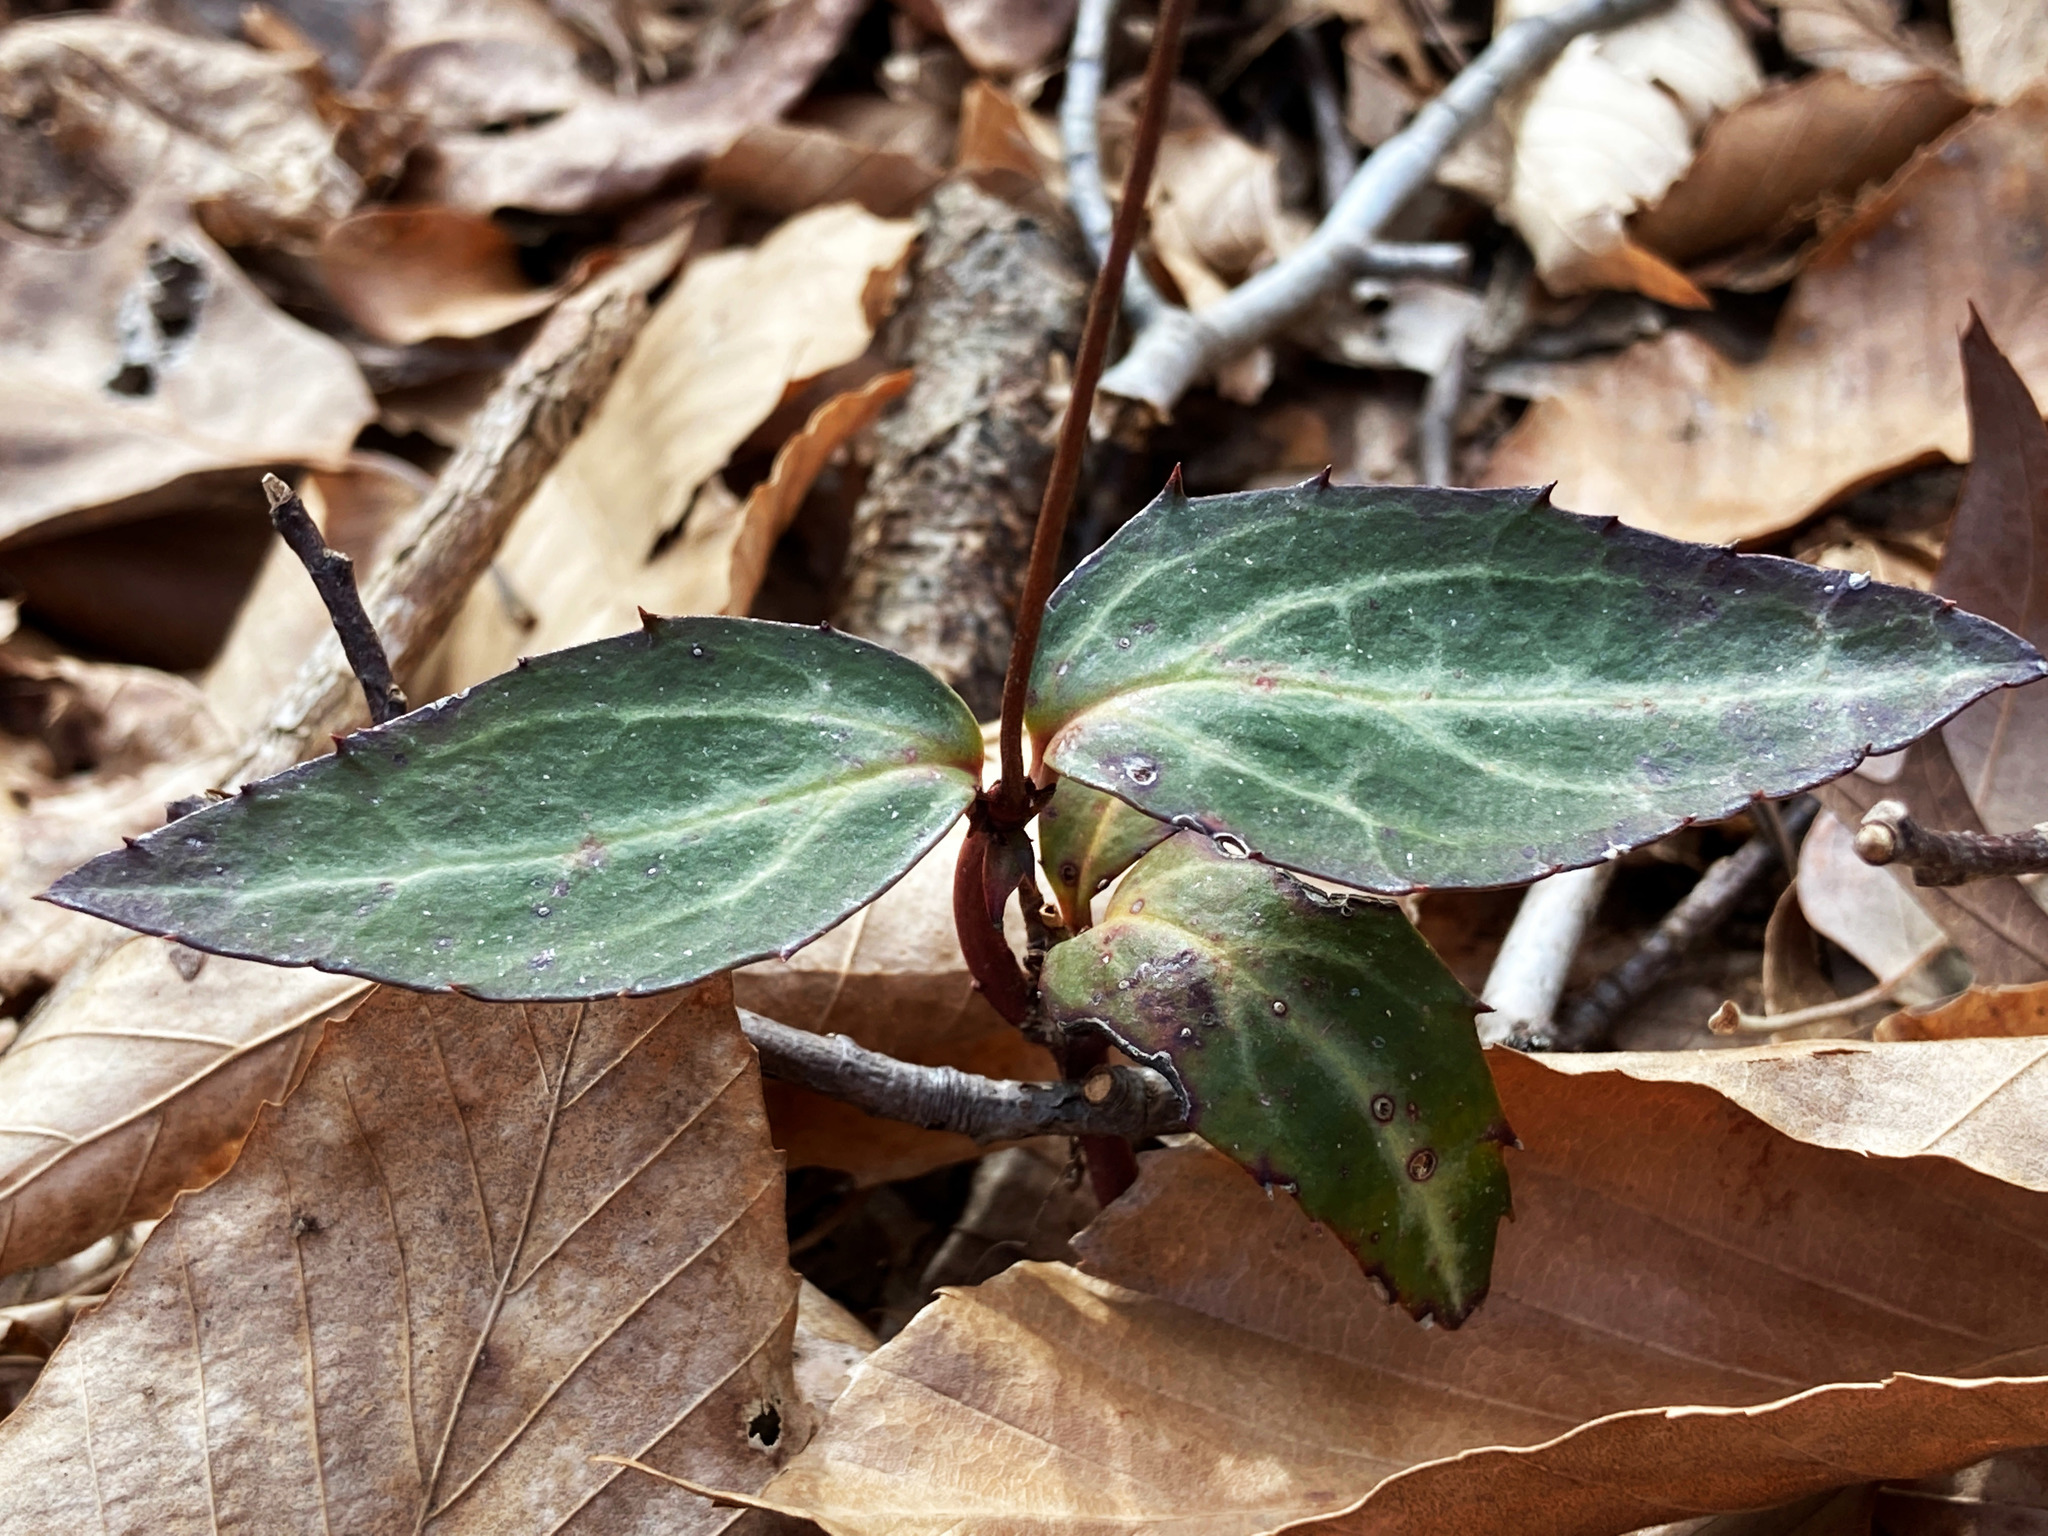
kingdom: Plantae
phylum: Tracheophyta
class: Magnoliopsida
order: Ericales
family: Ericaceae
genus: Chimaphila
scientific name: Chimaphila maculata
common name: Spotted pipsissewa
